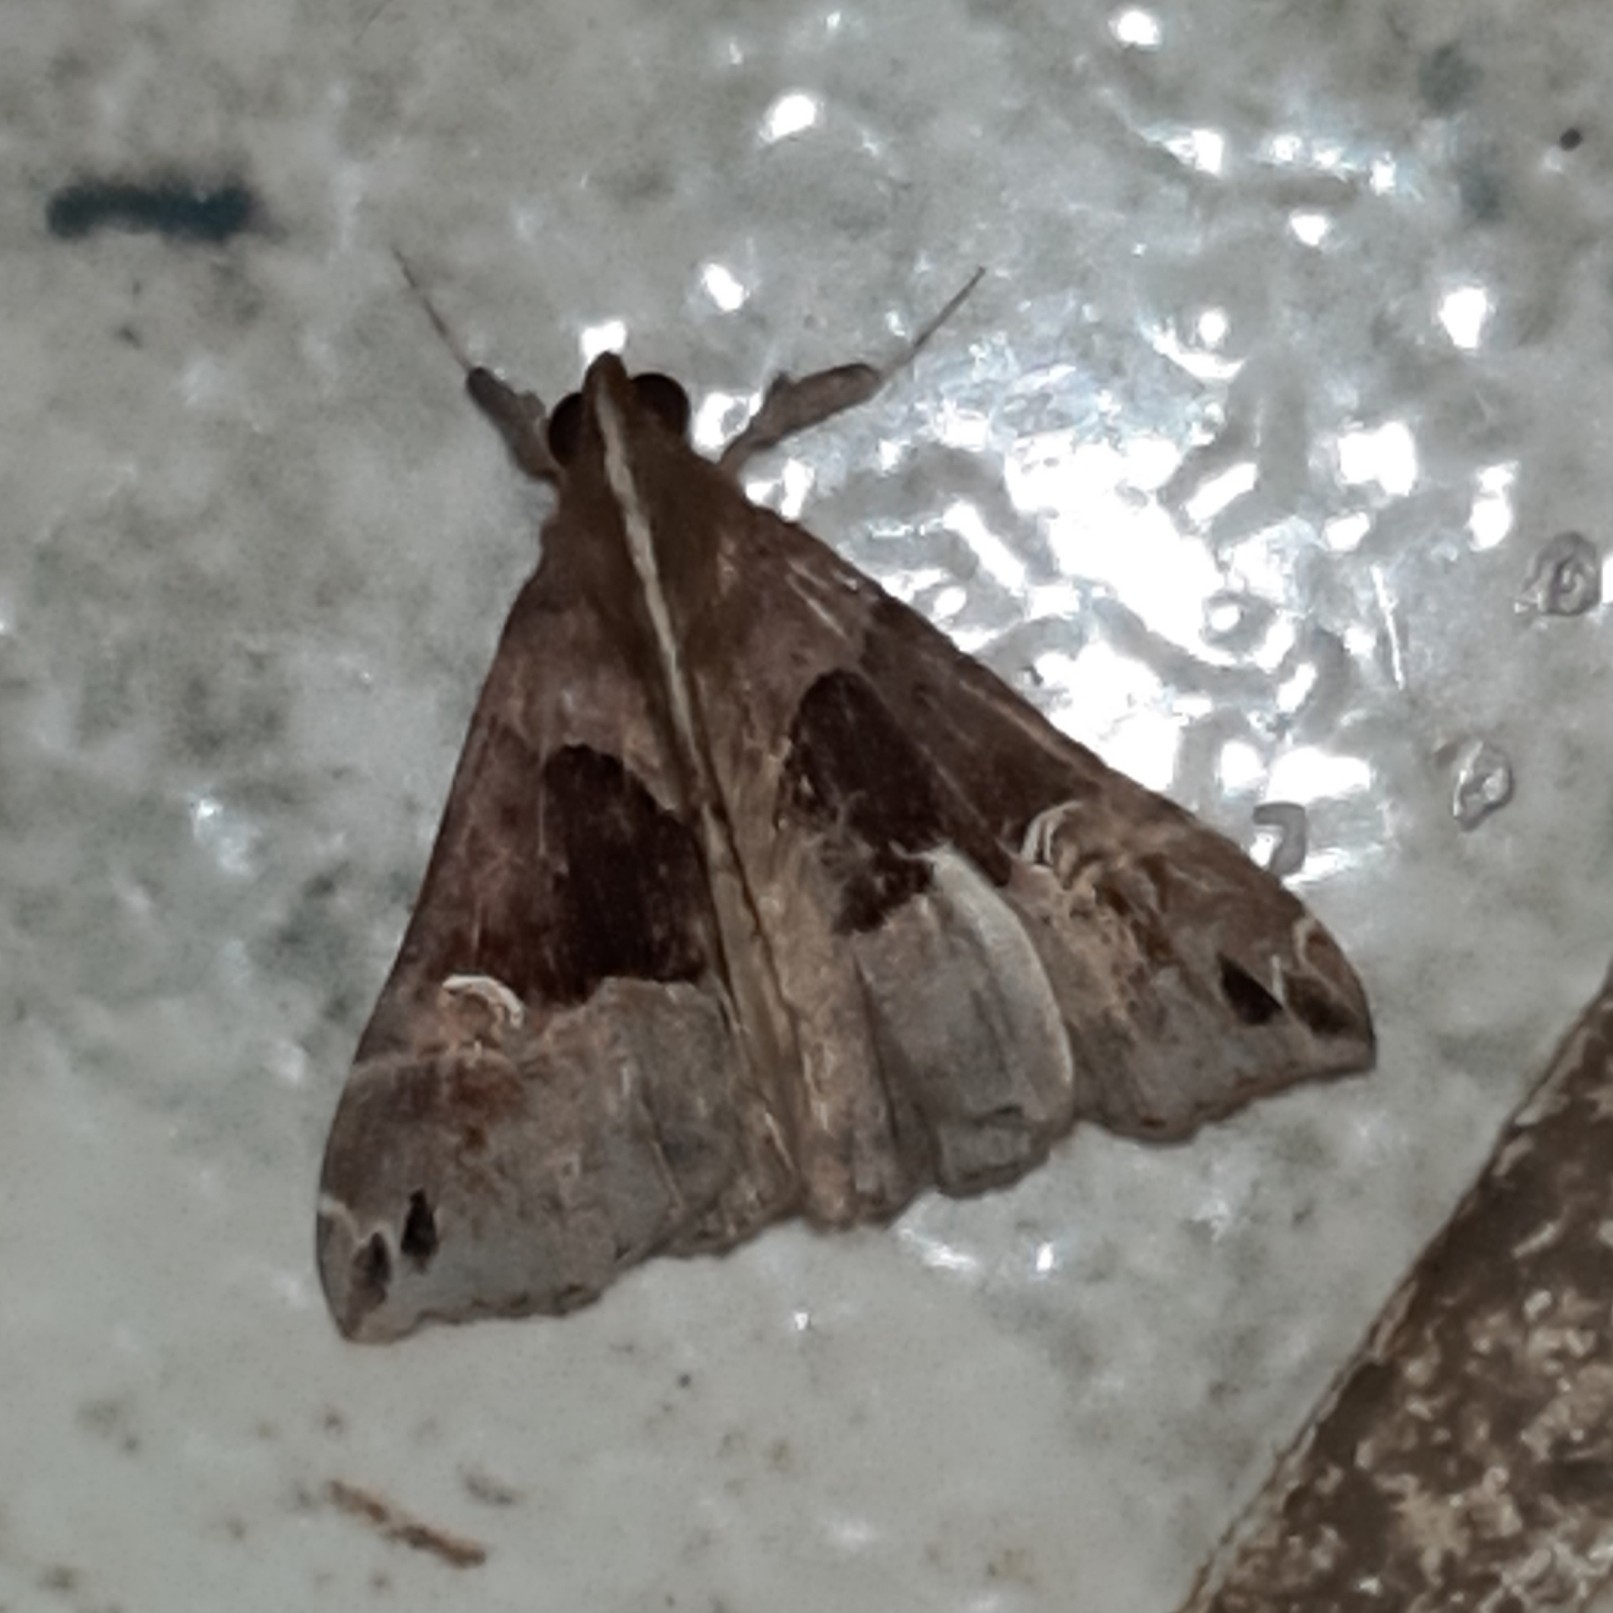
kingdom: Animalia
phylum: Arthropoda
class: Insecta
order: Lepidoptera
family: Erebidae
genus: Scopifera
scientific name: Scopifera falsirenalis
